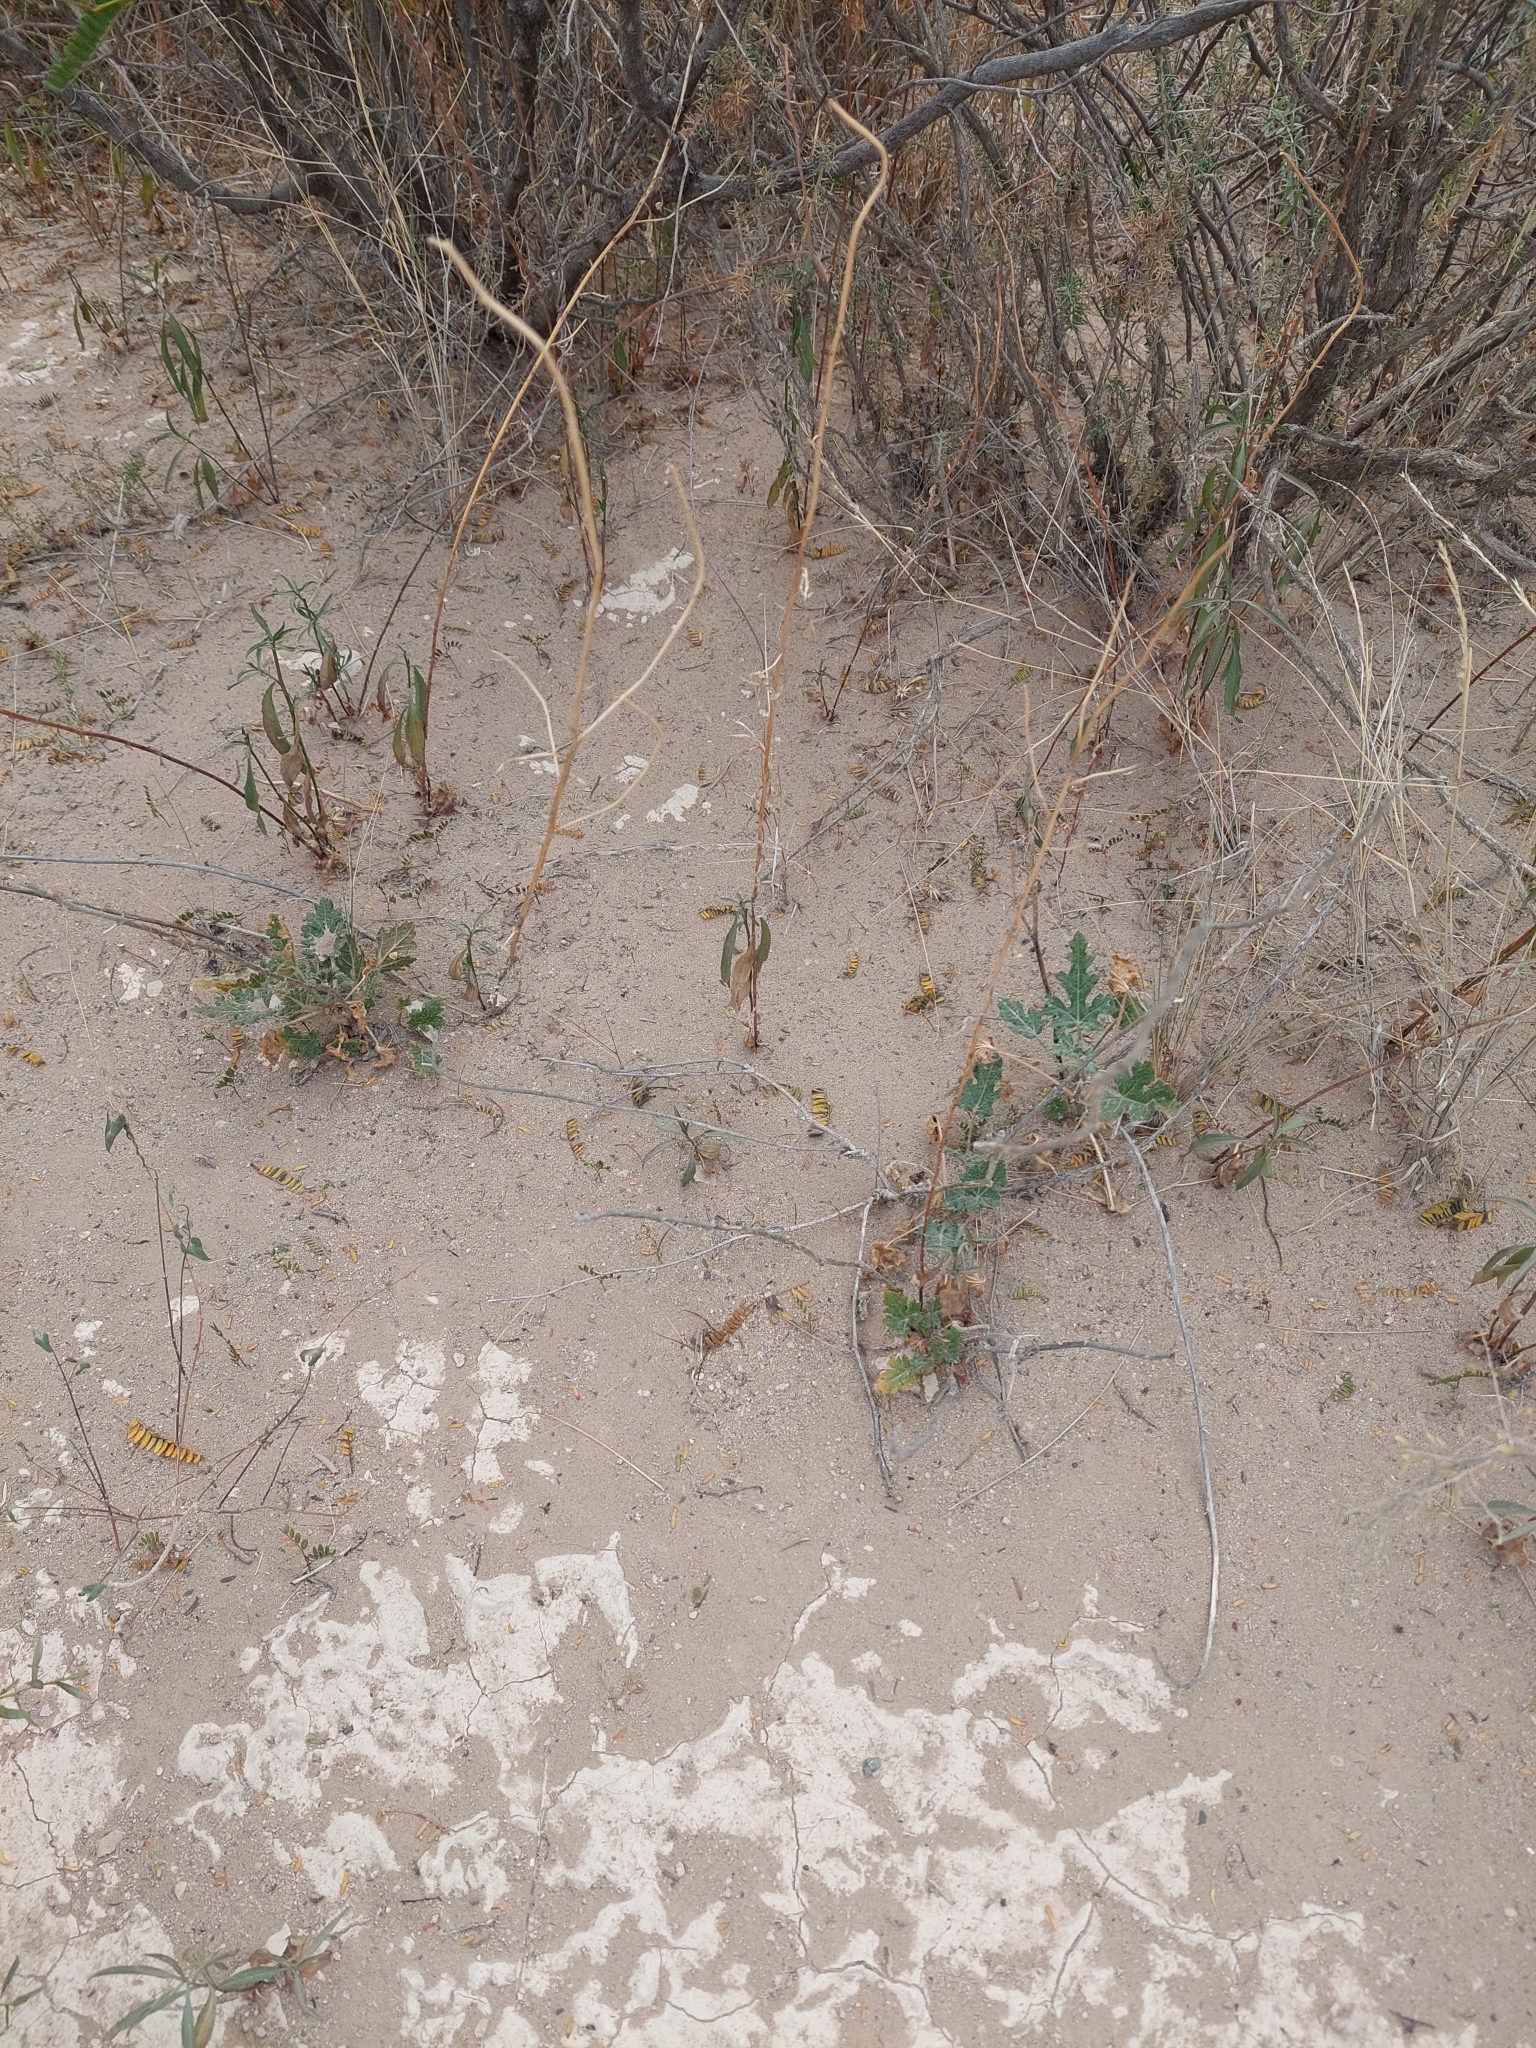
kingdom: Plantae
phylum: Tracheophyta
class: Magnoliopsida
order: Malvales
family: Malvaceae
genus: Lecanophora
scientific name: Lecanophora heterophylla
